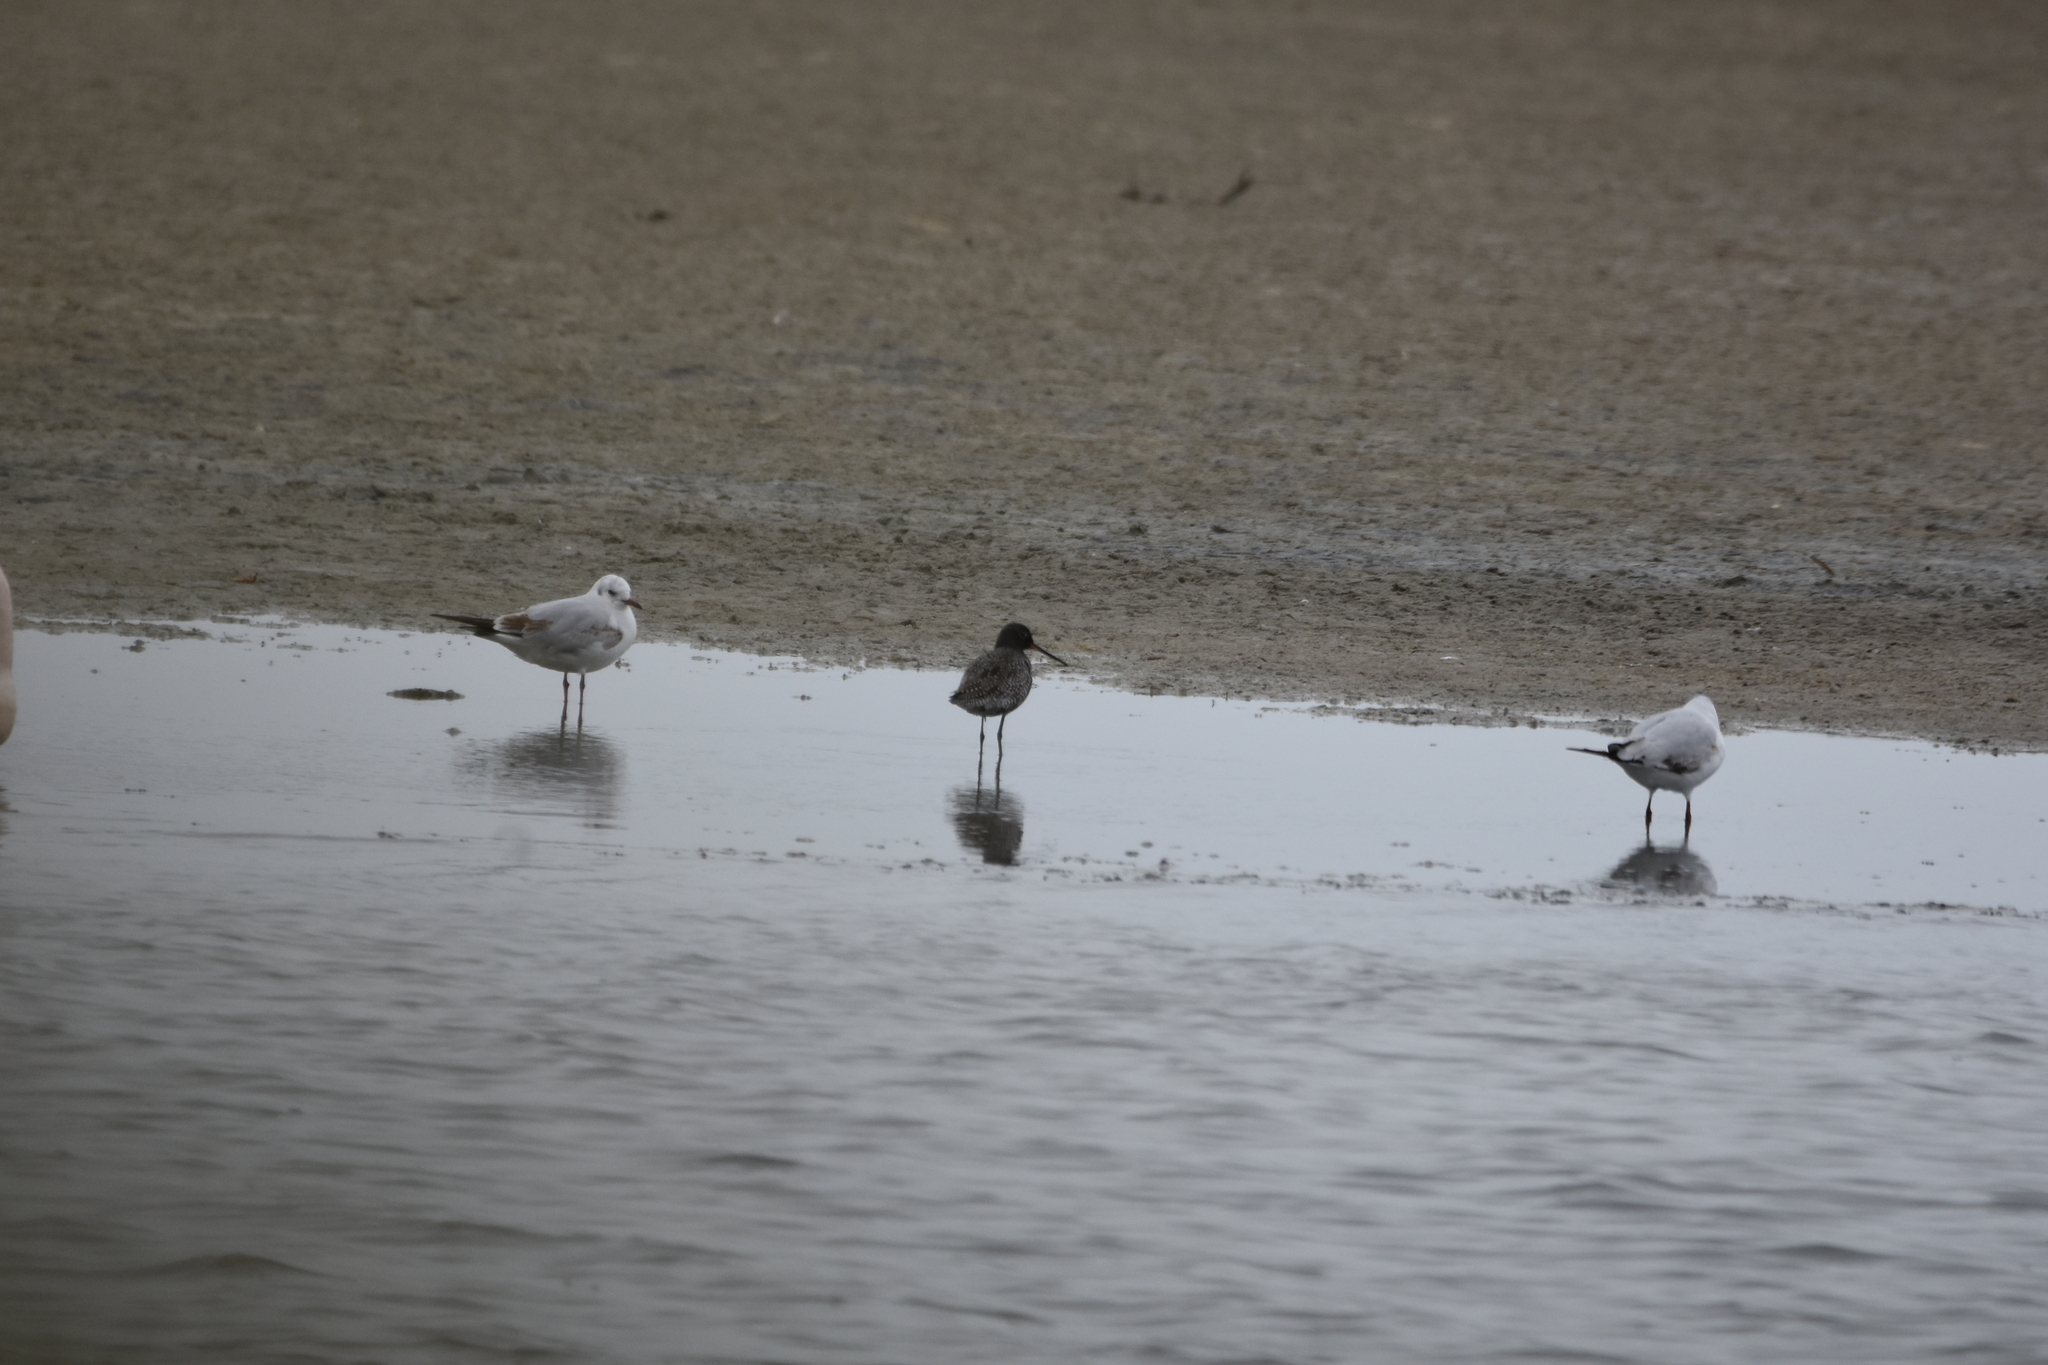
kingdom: Animalia
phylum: Chordata
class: Aves
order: Charadriiformes
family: Scolopacidae
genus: Tringa
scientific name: Tringa erythropus
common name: Spotted redshank
